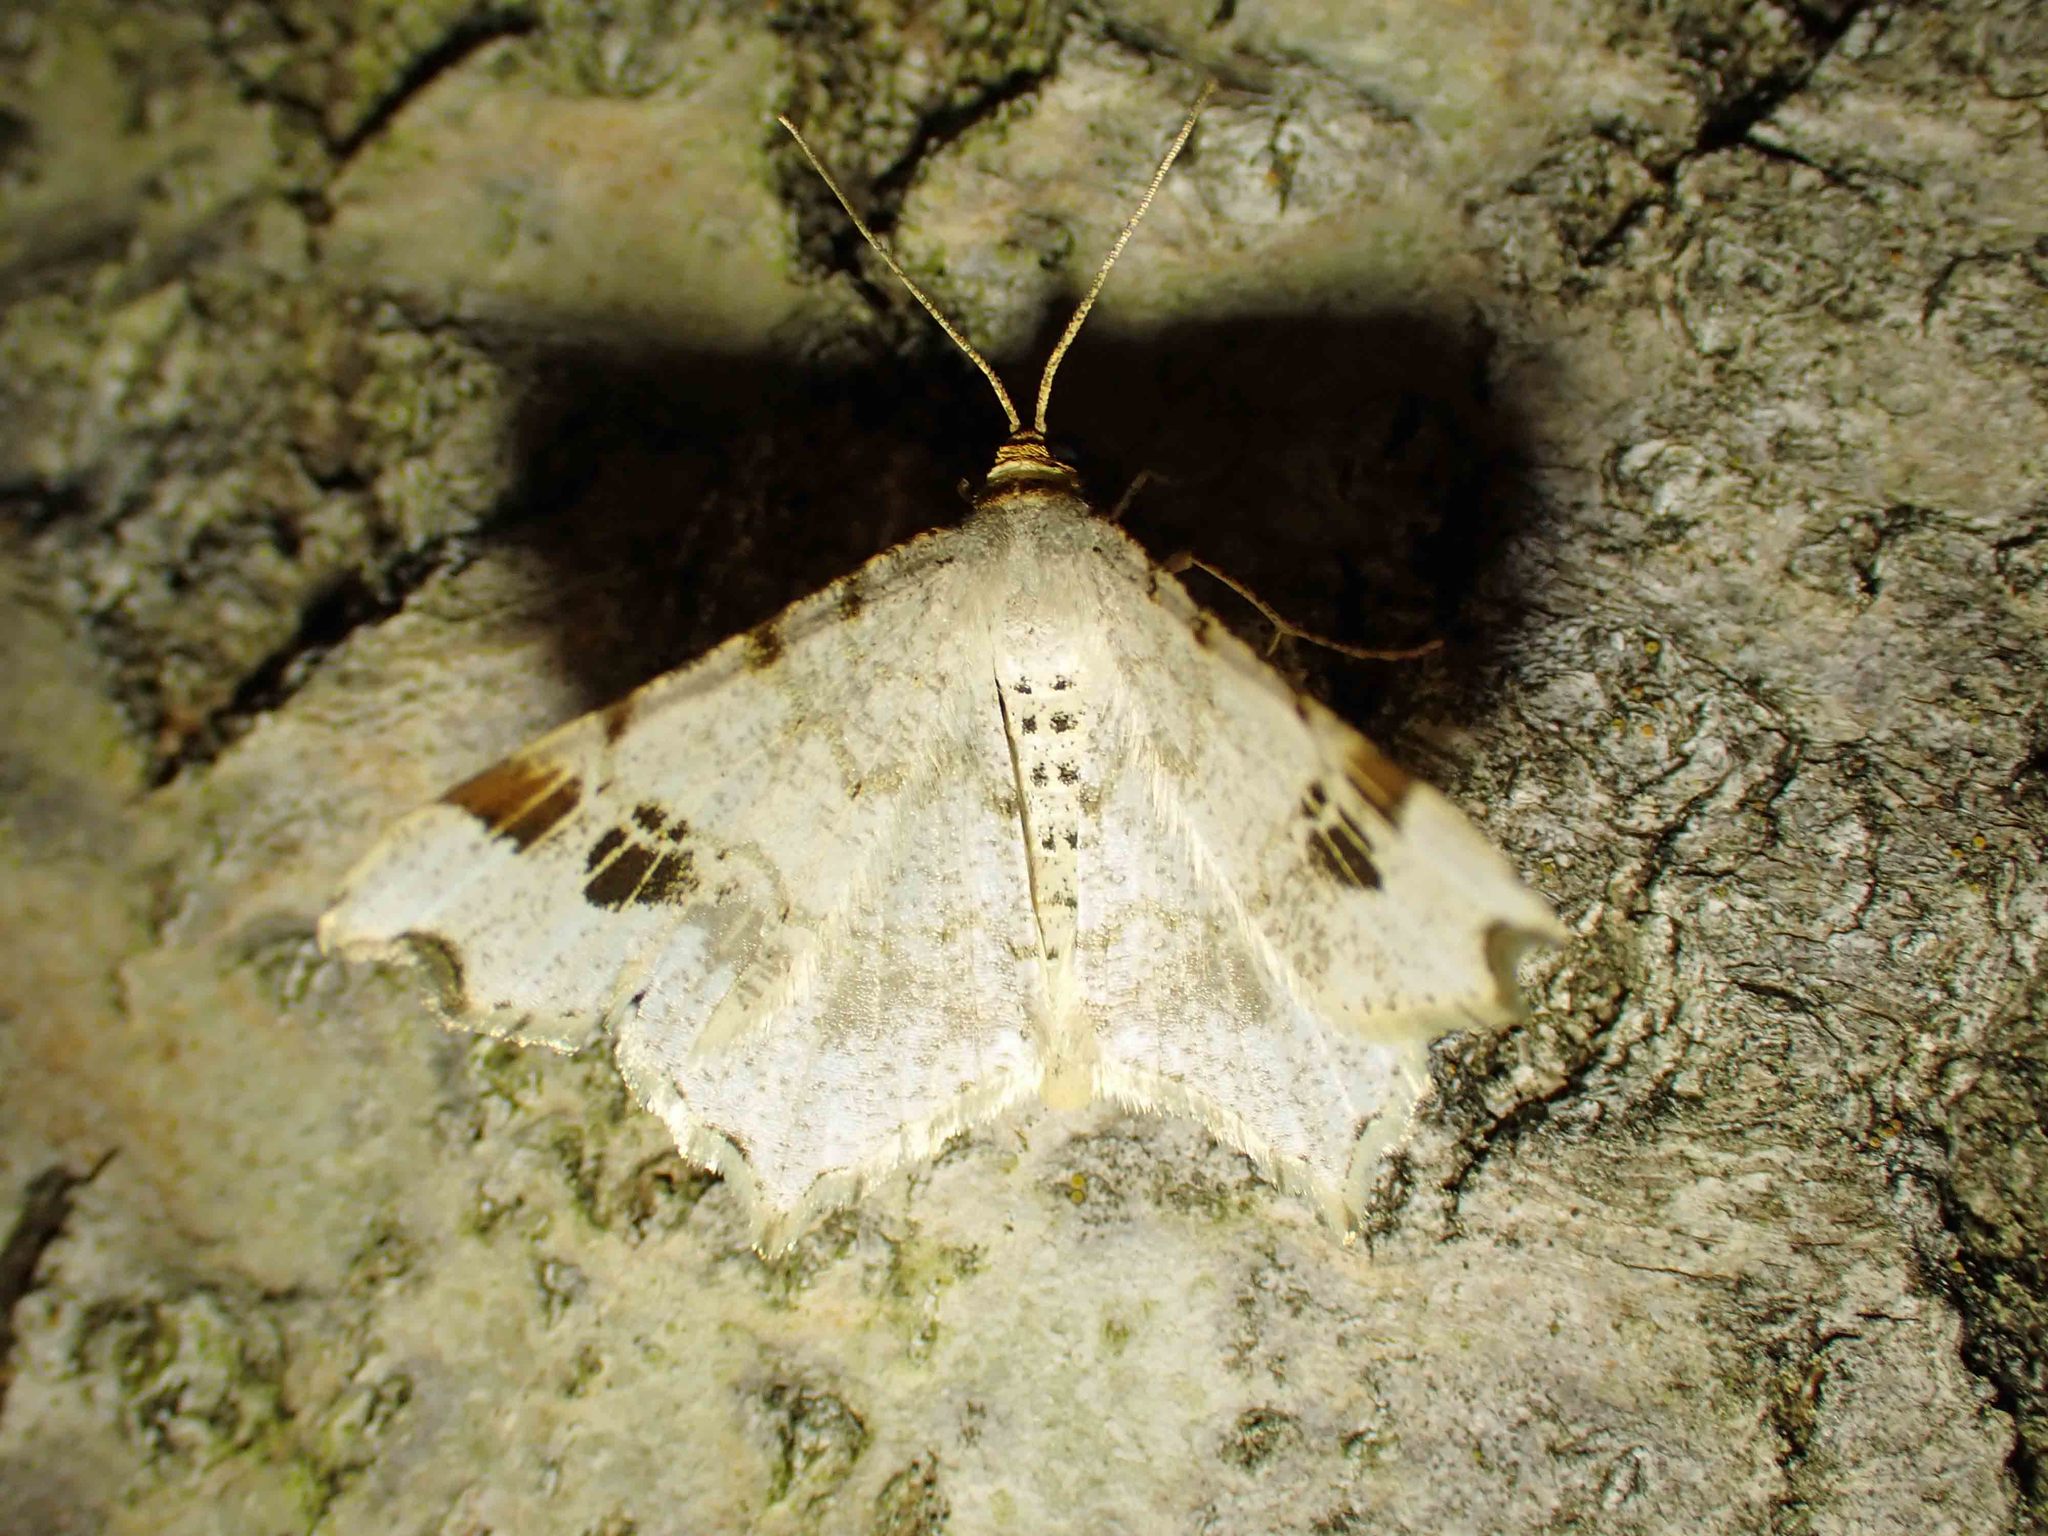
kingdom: Animalia
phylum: Arthropoda
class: Insecta
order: Lepidoptera
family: Geometridae
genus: Macaria
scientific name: Macaria ulsterata
